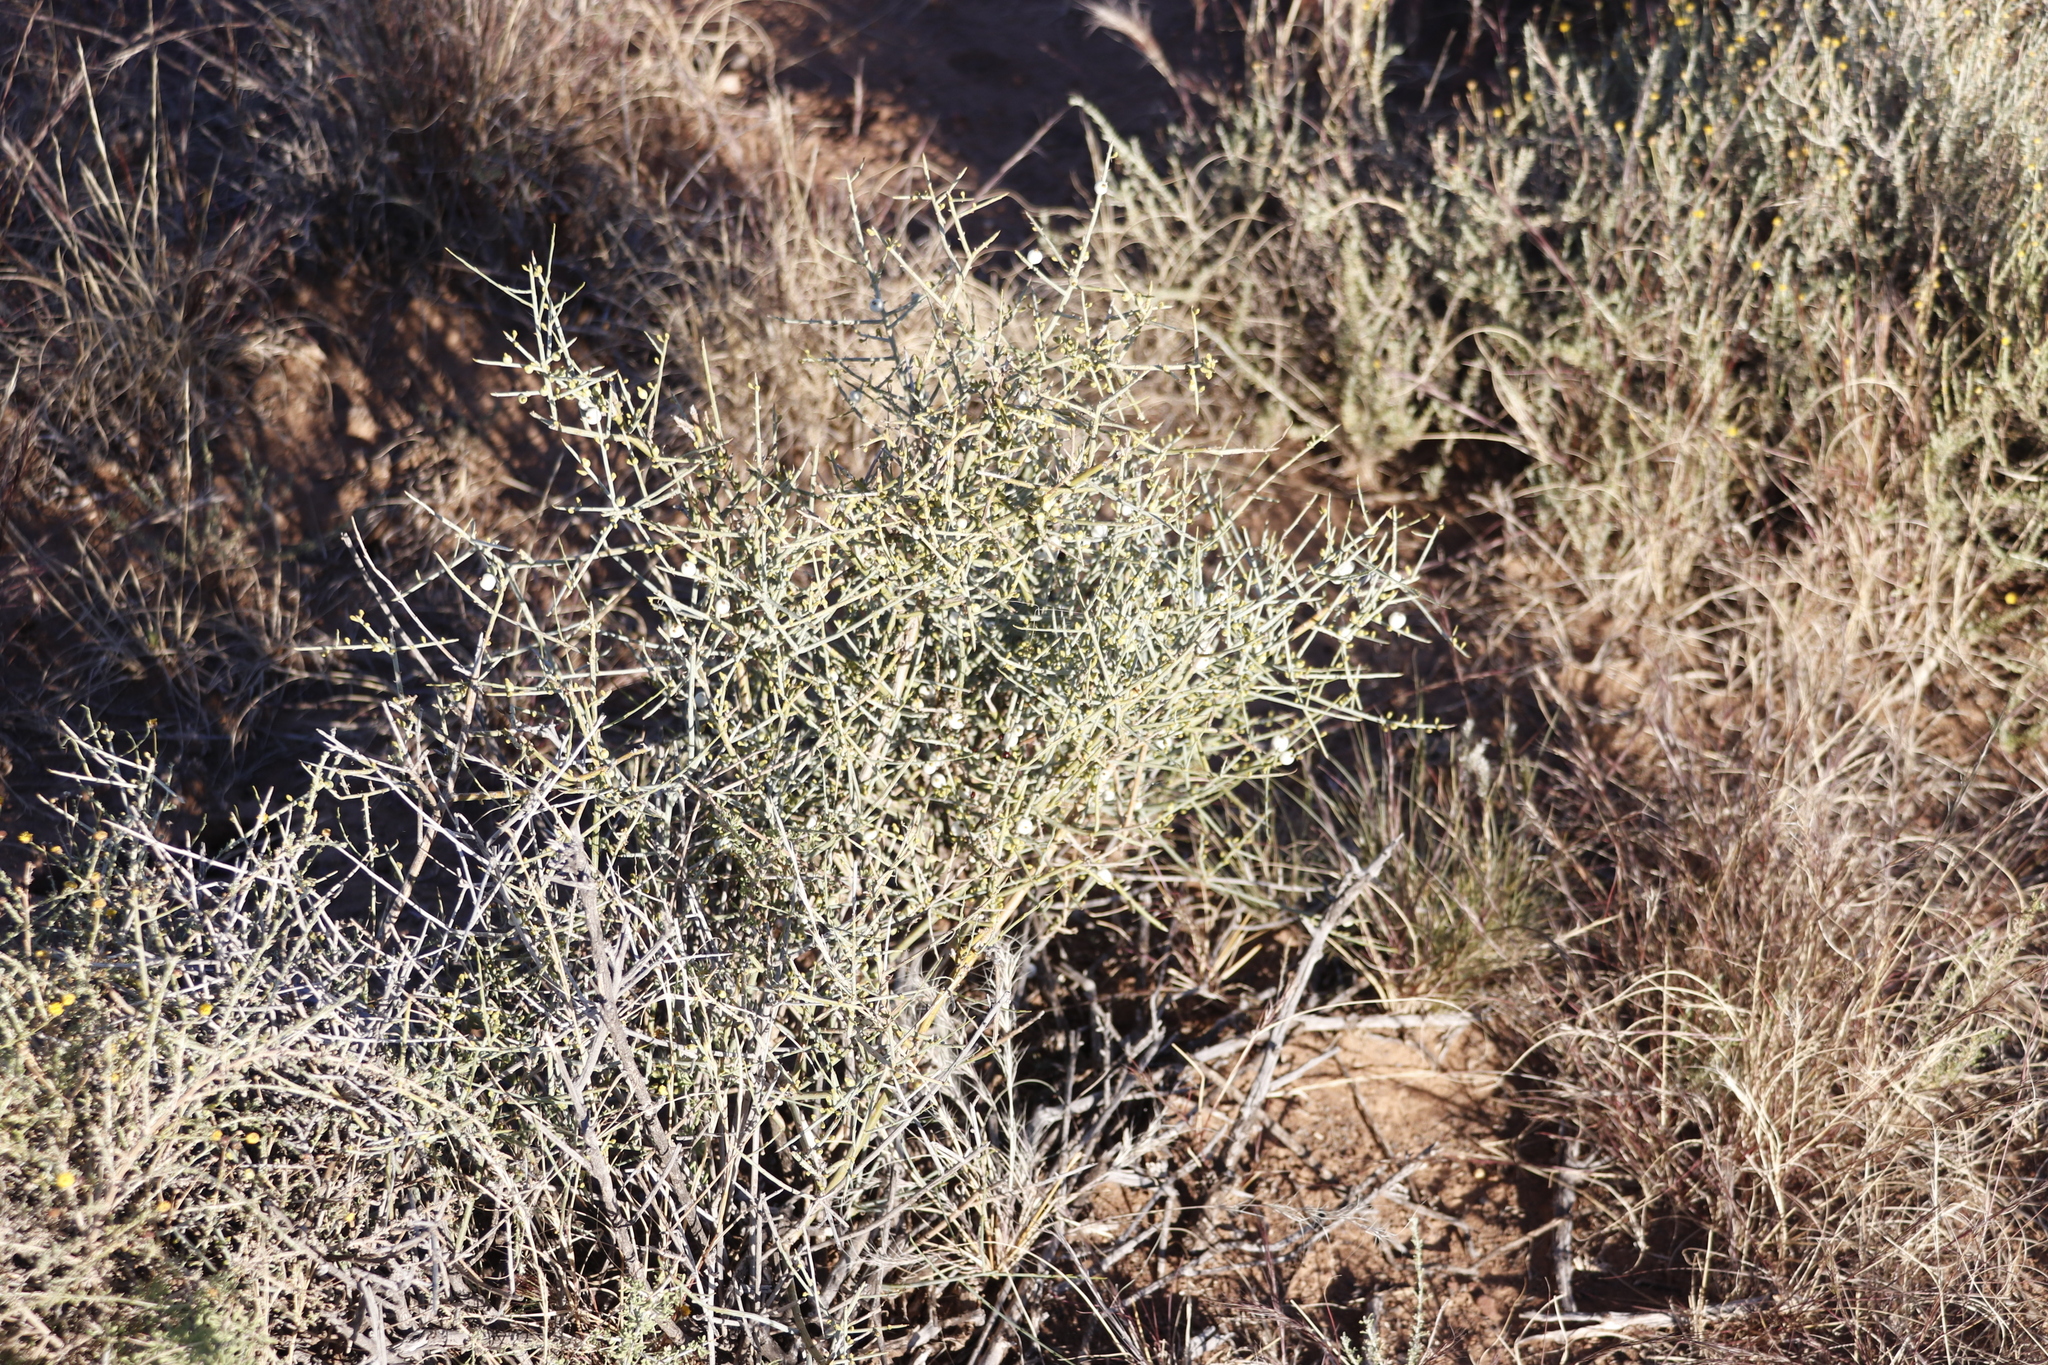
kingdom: Plantae
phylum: Tracheophyta
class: Magnoliopsida
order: Santalales
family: Thesiaceae
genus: Lacomucinaea
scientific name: Lacomucinaea lineata
